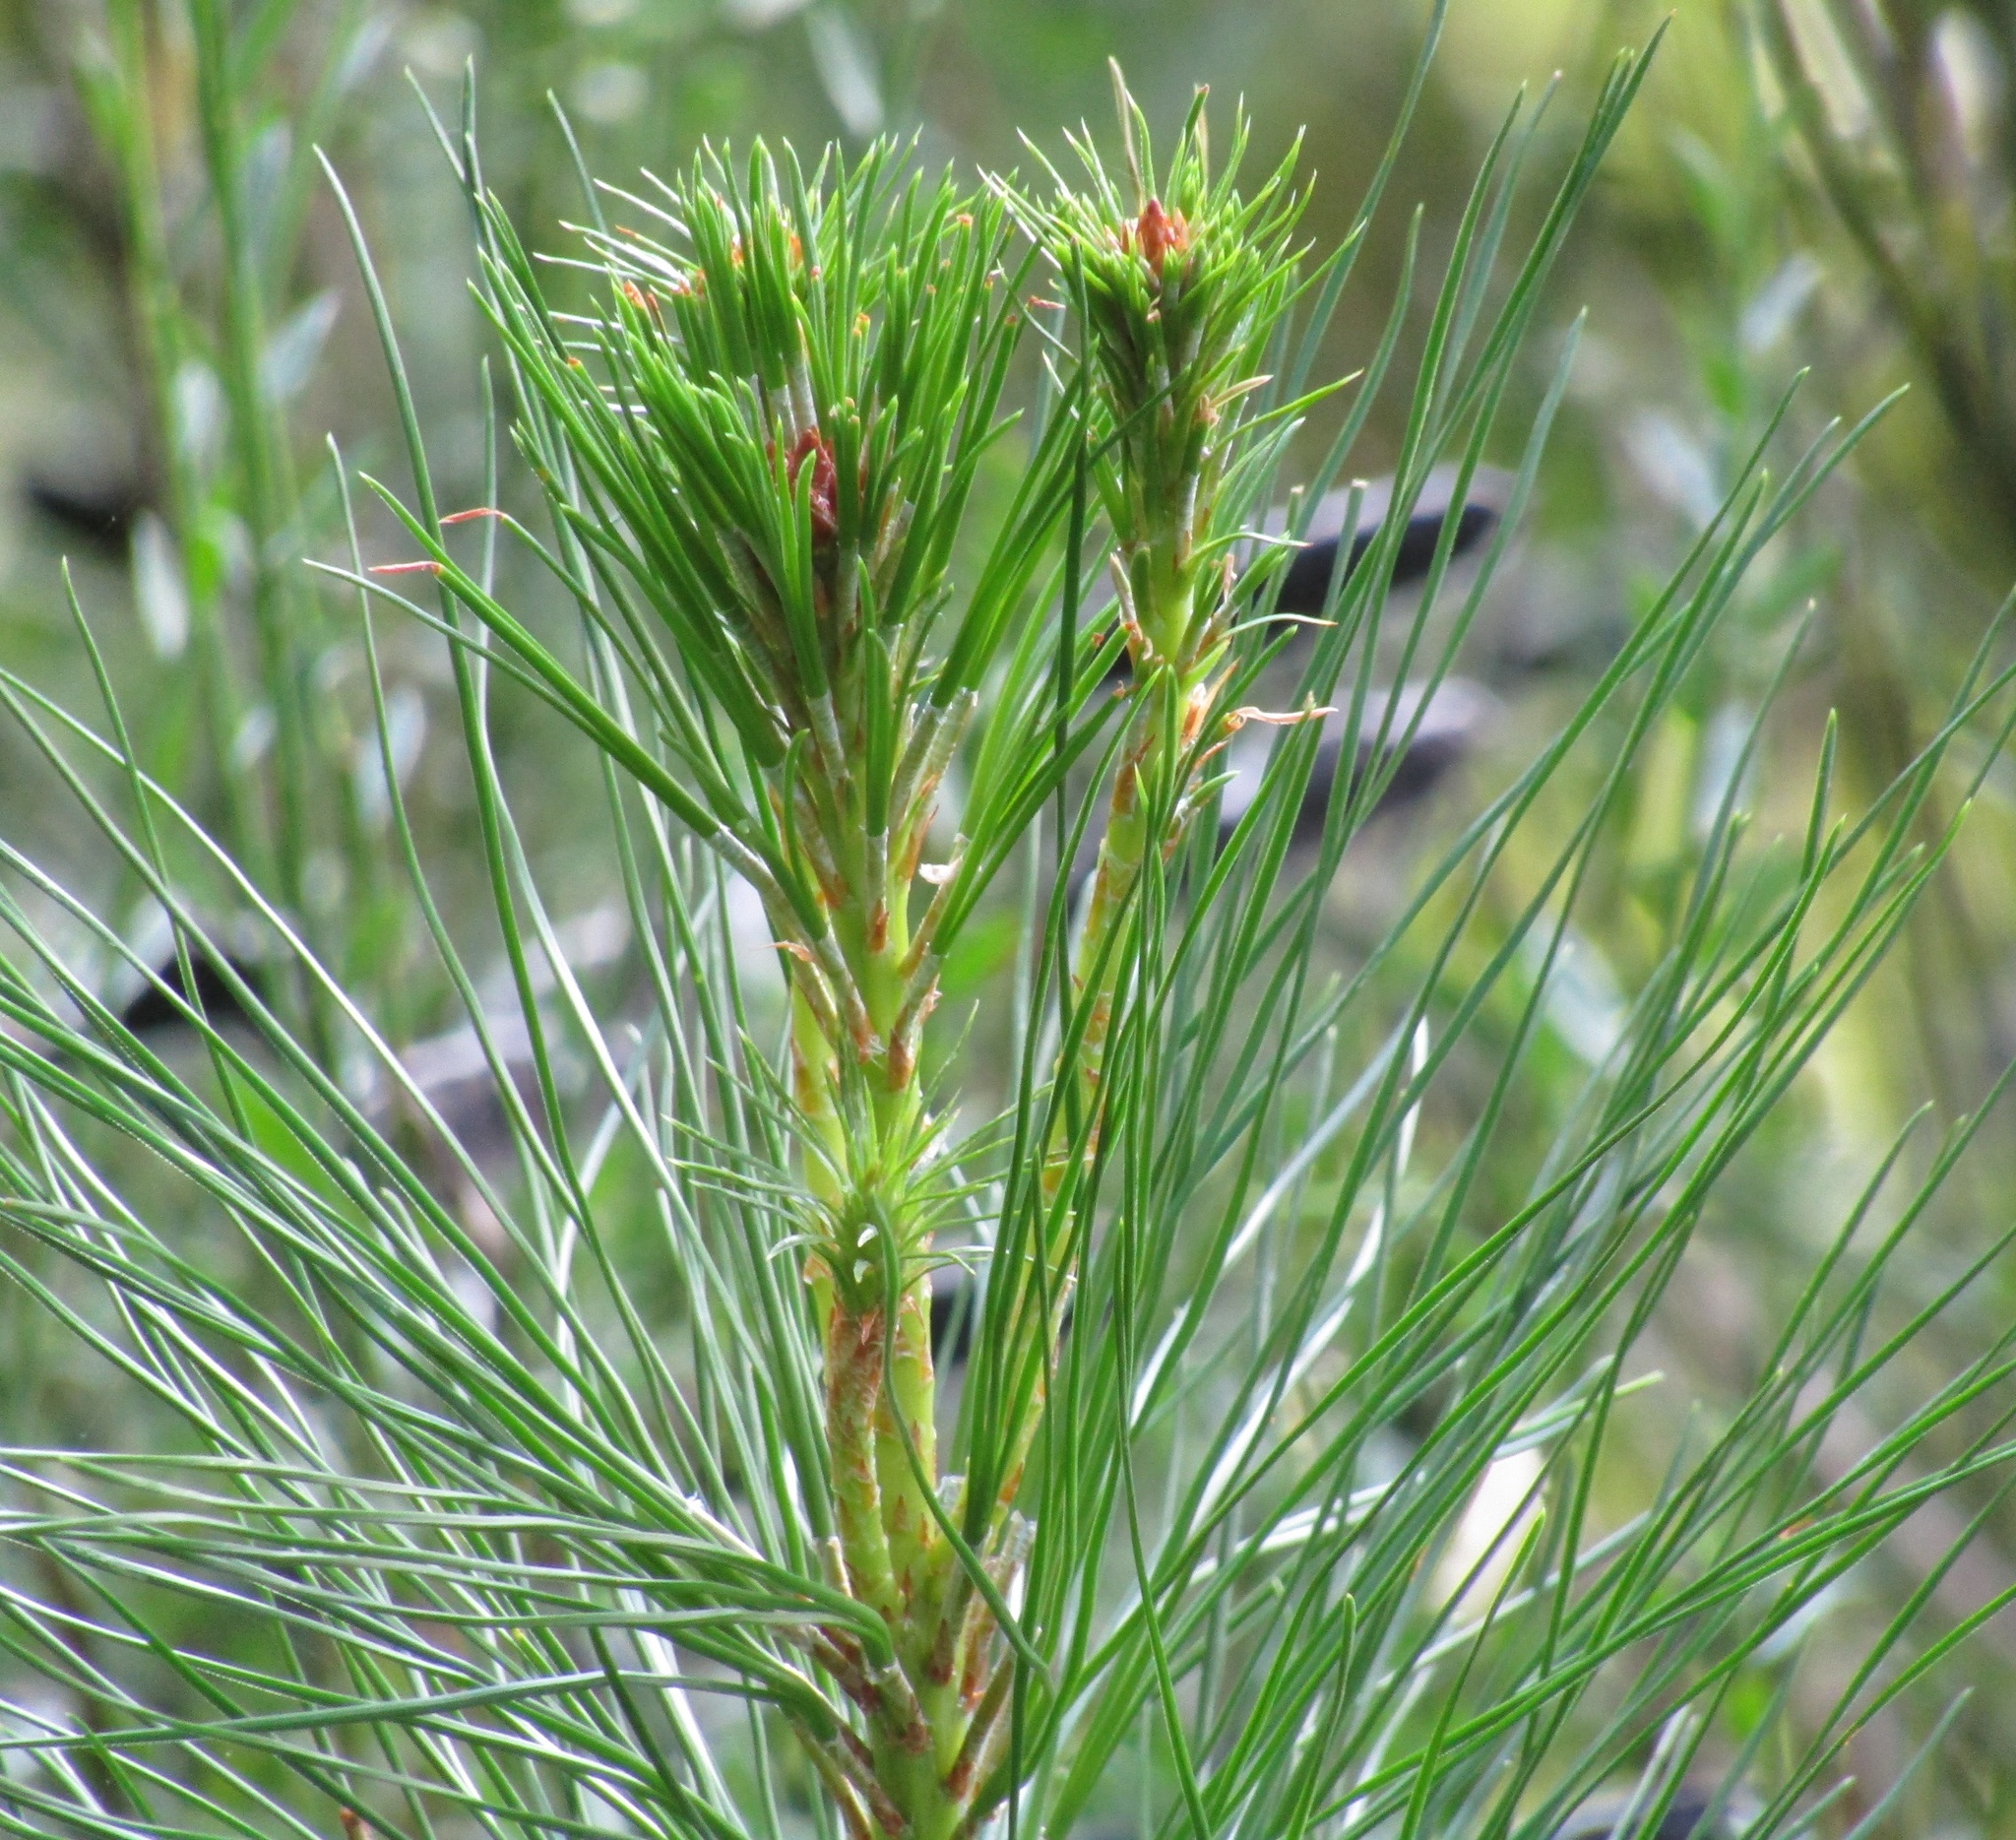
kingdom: Plantae
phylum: Tracheophyta
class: Pinopsida
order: Pinales
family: Pinaceae
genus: Pinus
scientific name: Pinus radiata
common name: Monterey pine
